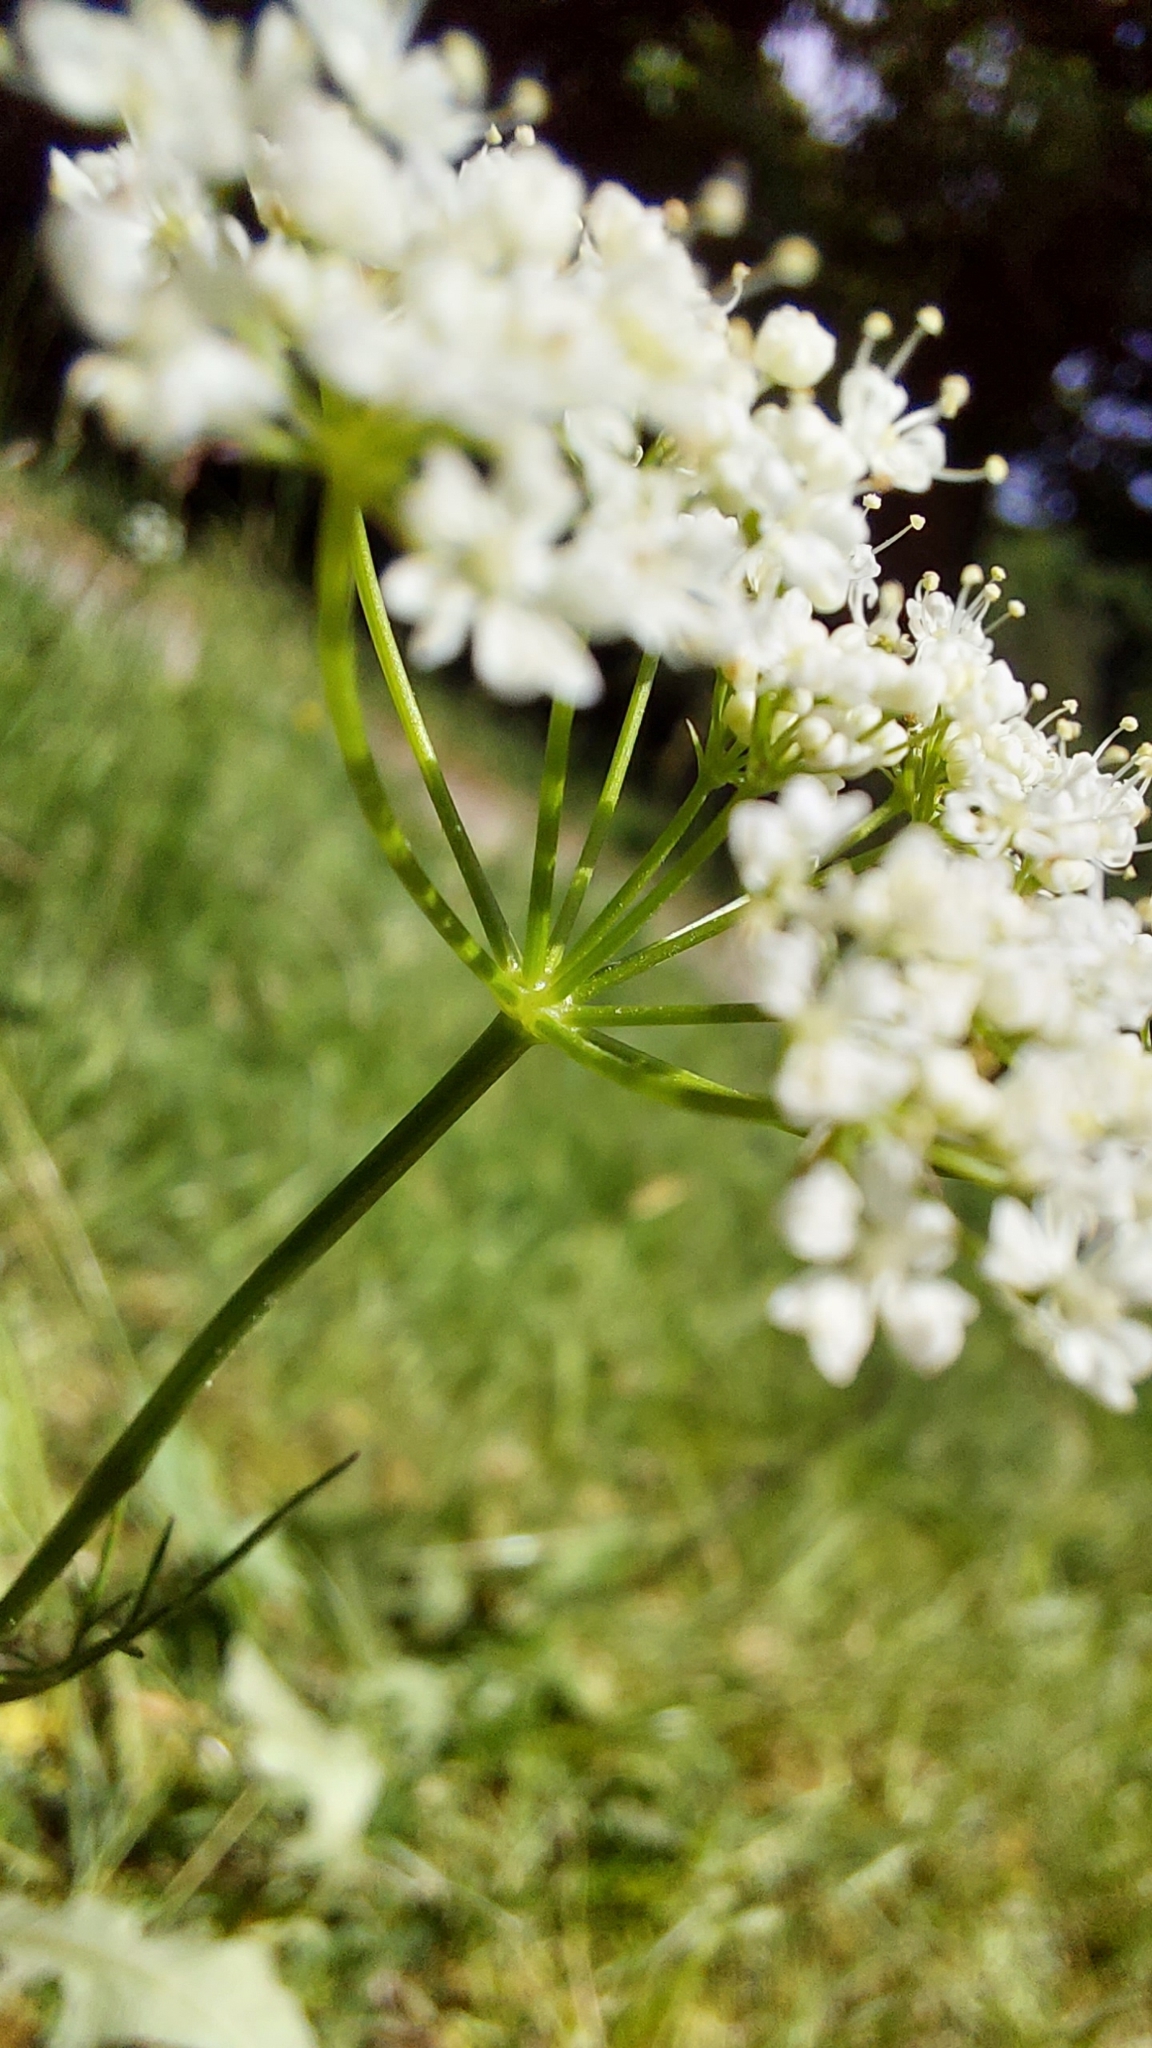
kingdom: Plantae
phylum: Tracheophyta
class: Magnoliopsida
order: Apiales
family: Apiaceae
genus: Conopodium
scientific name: Conopodium majus
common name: Pignut
